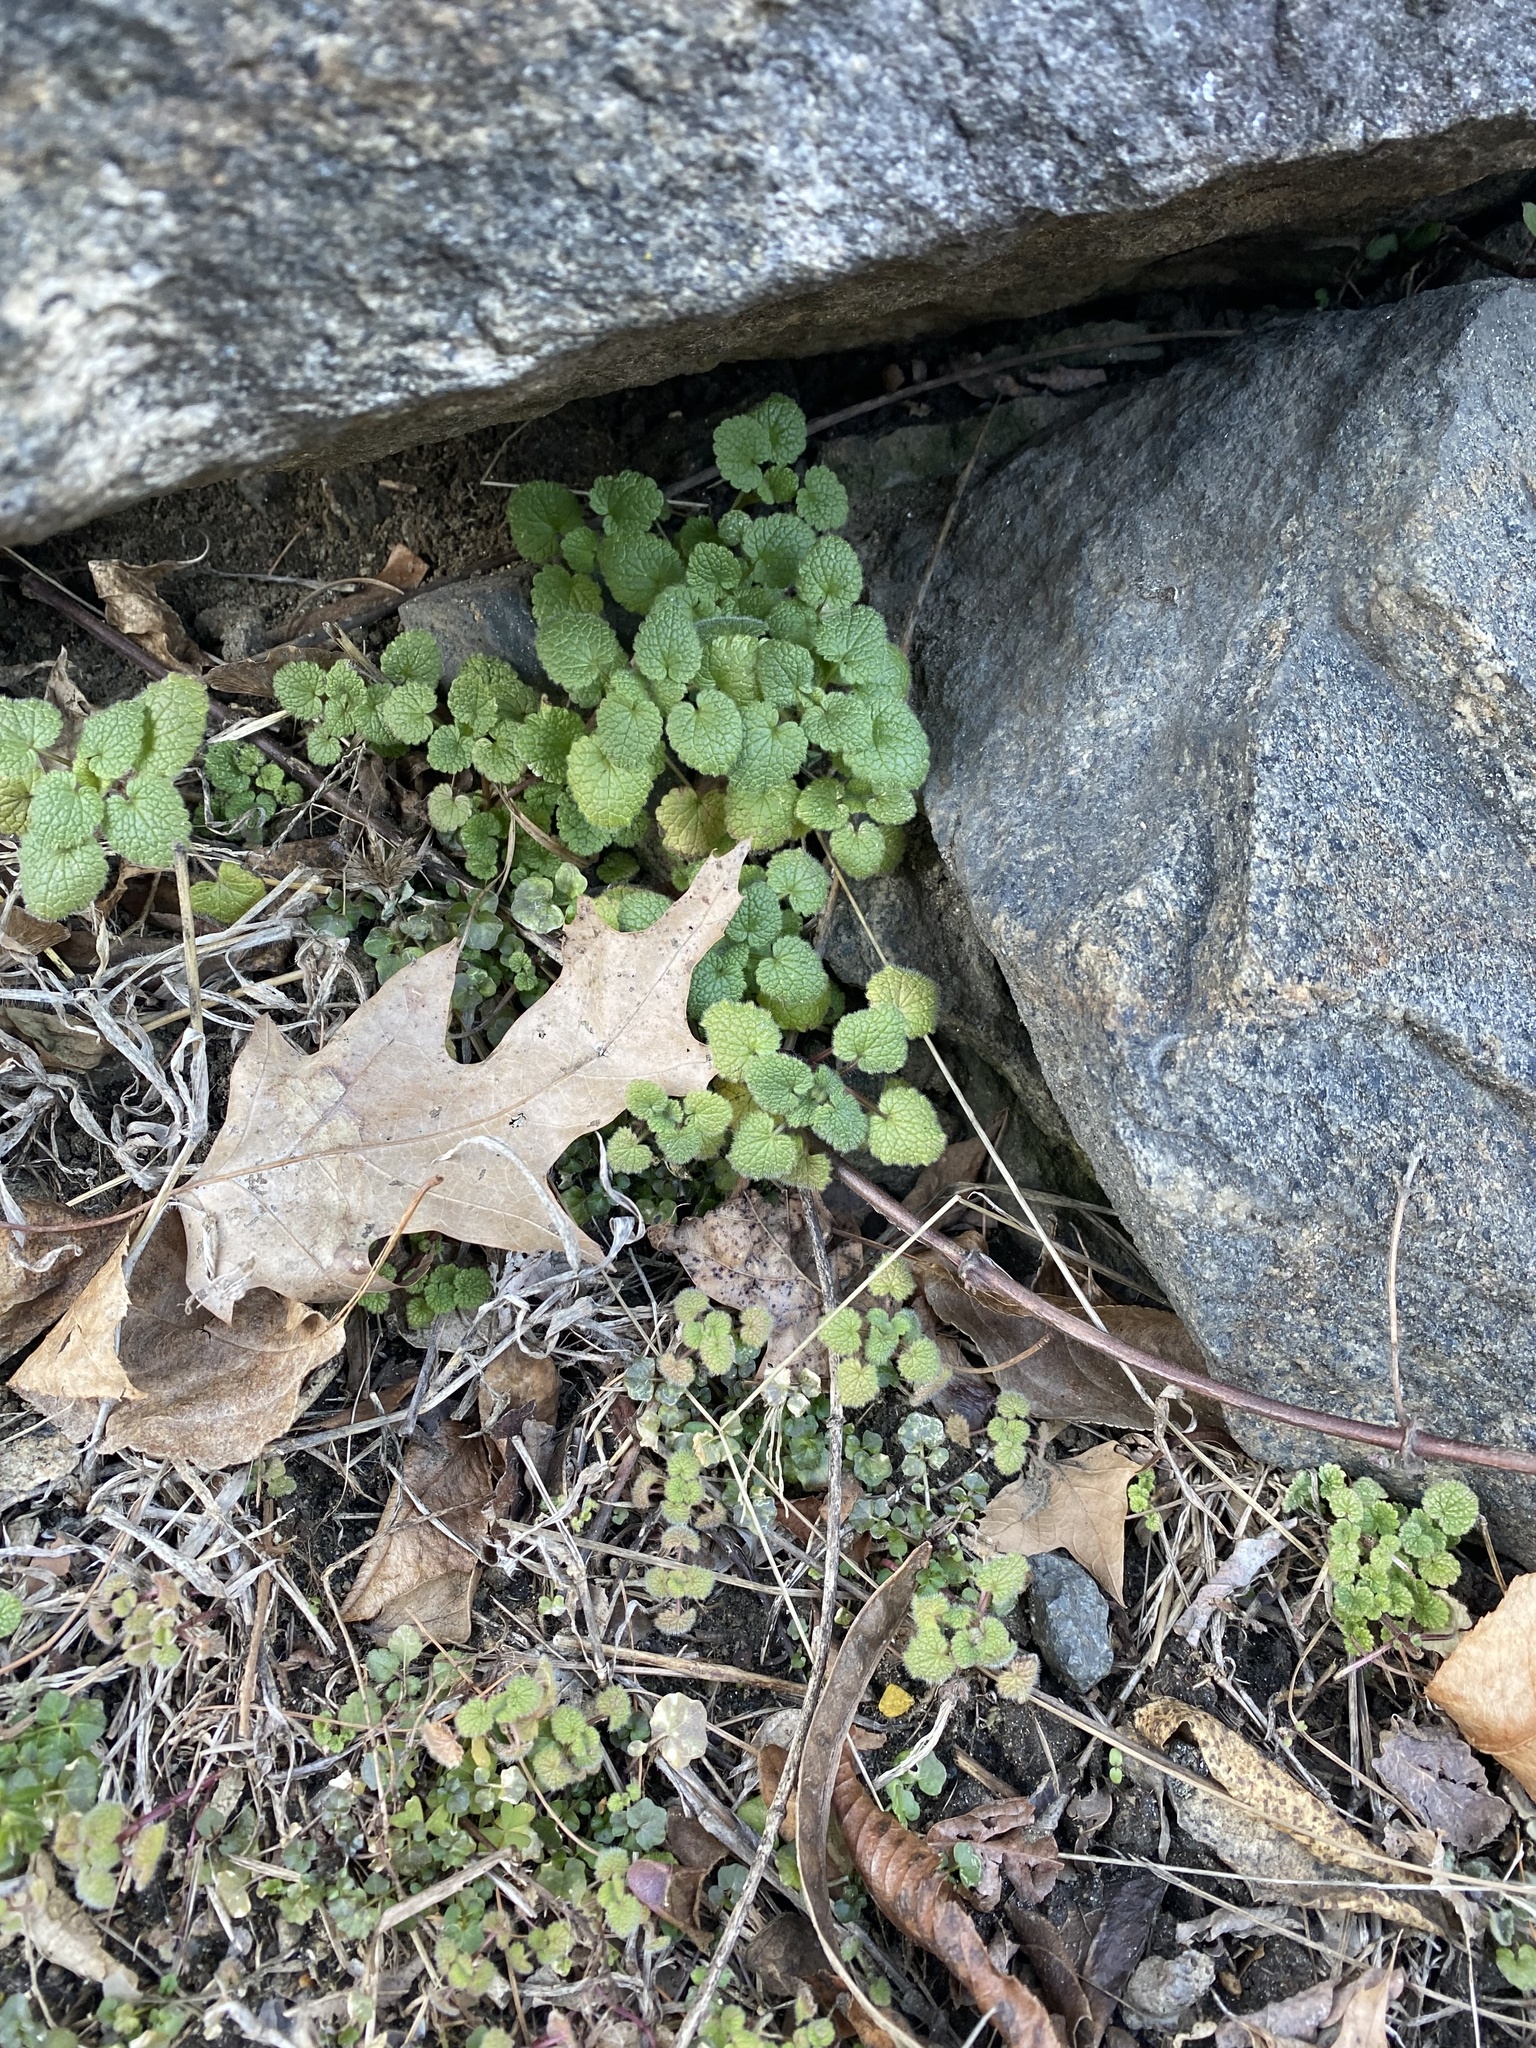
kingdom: Plantae
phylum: Tracheophyta
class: Magnoliopsida
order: Lamiales
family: Lamiaceae
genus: Lamium
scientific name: Lamium purpureum
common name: Red dead-nettle
